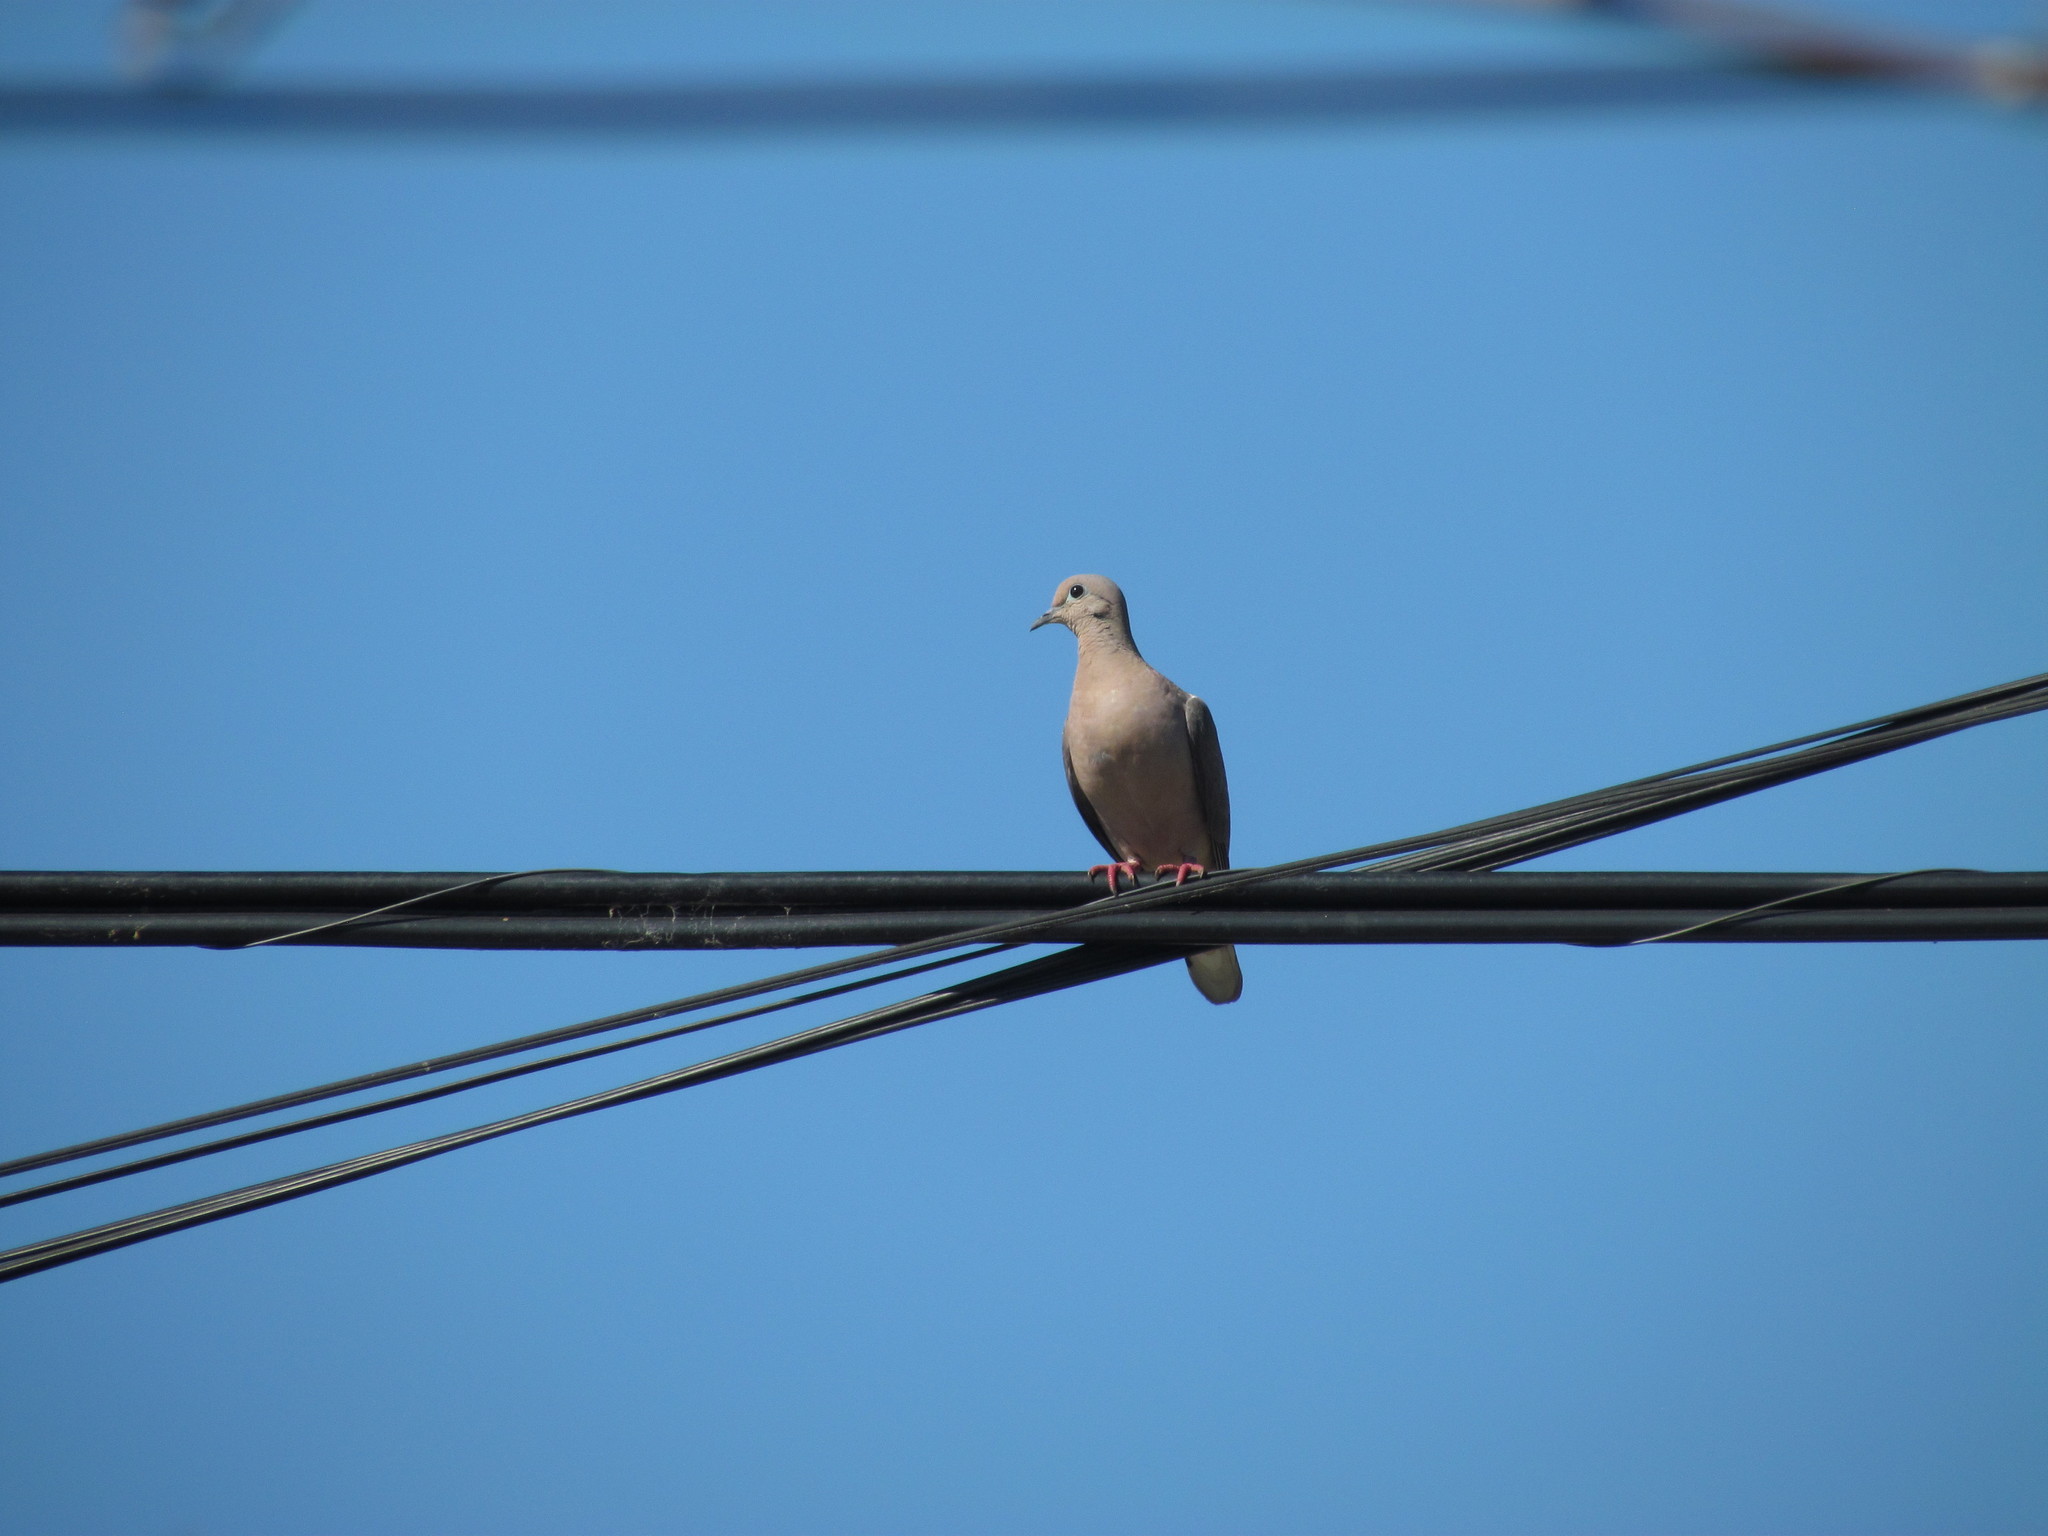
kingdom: Animalia
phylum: Chordata
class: Aves
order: Columbiformes
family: Columbidae
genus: Zenaida
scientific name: Zenaida auriculata
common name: Eared dove
